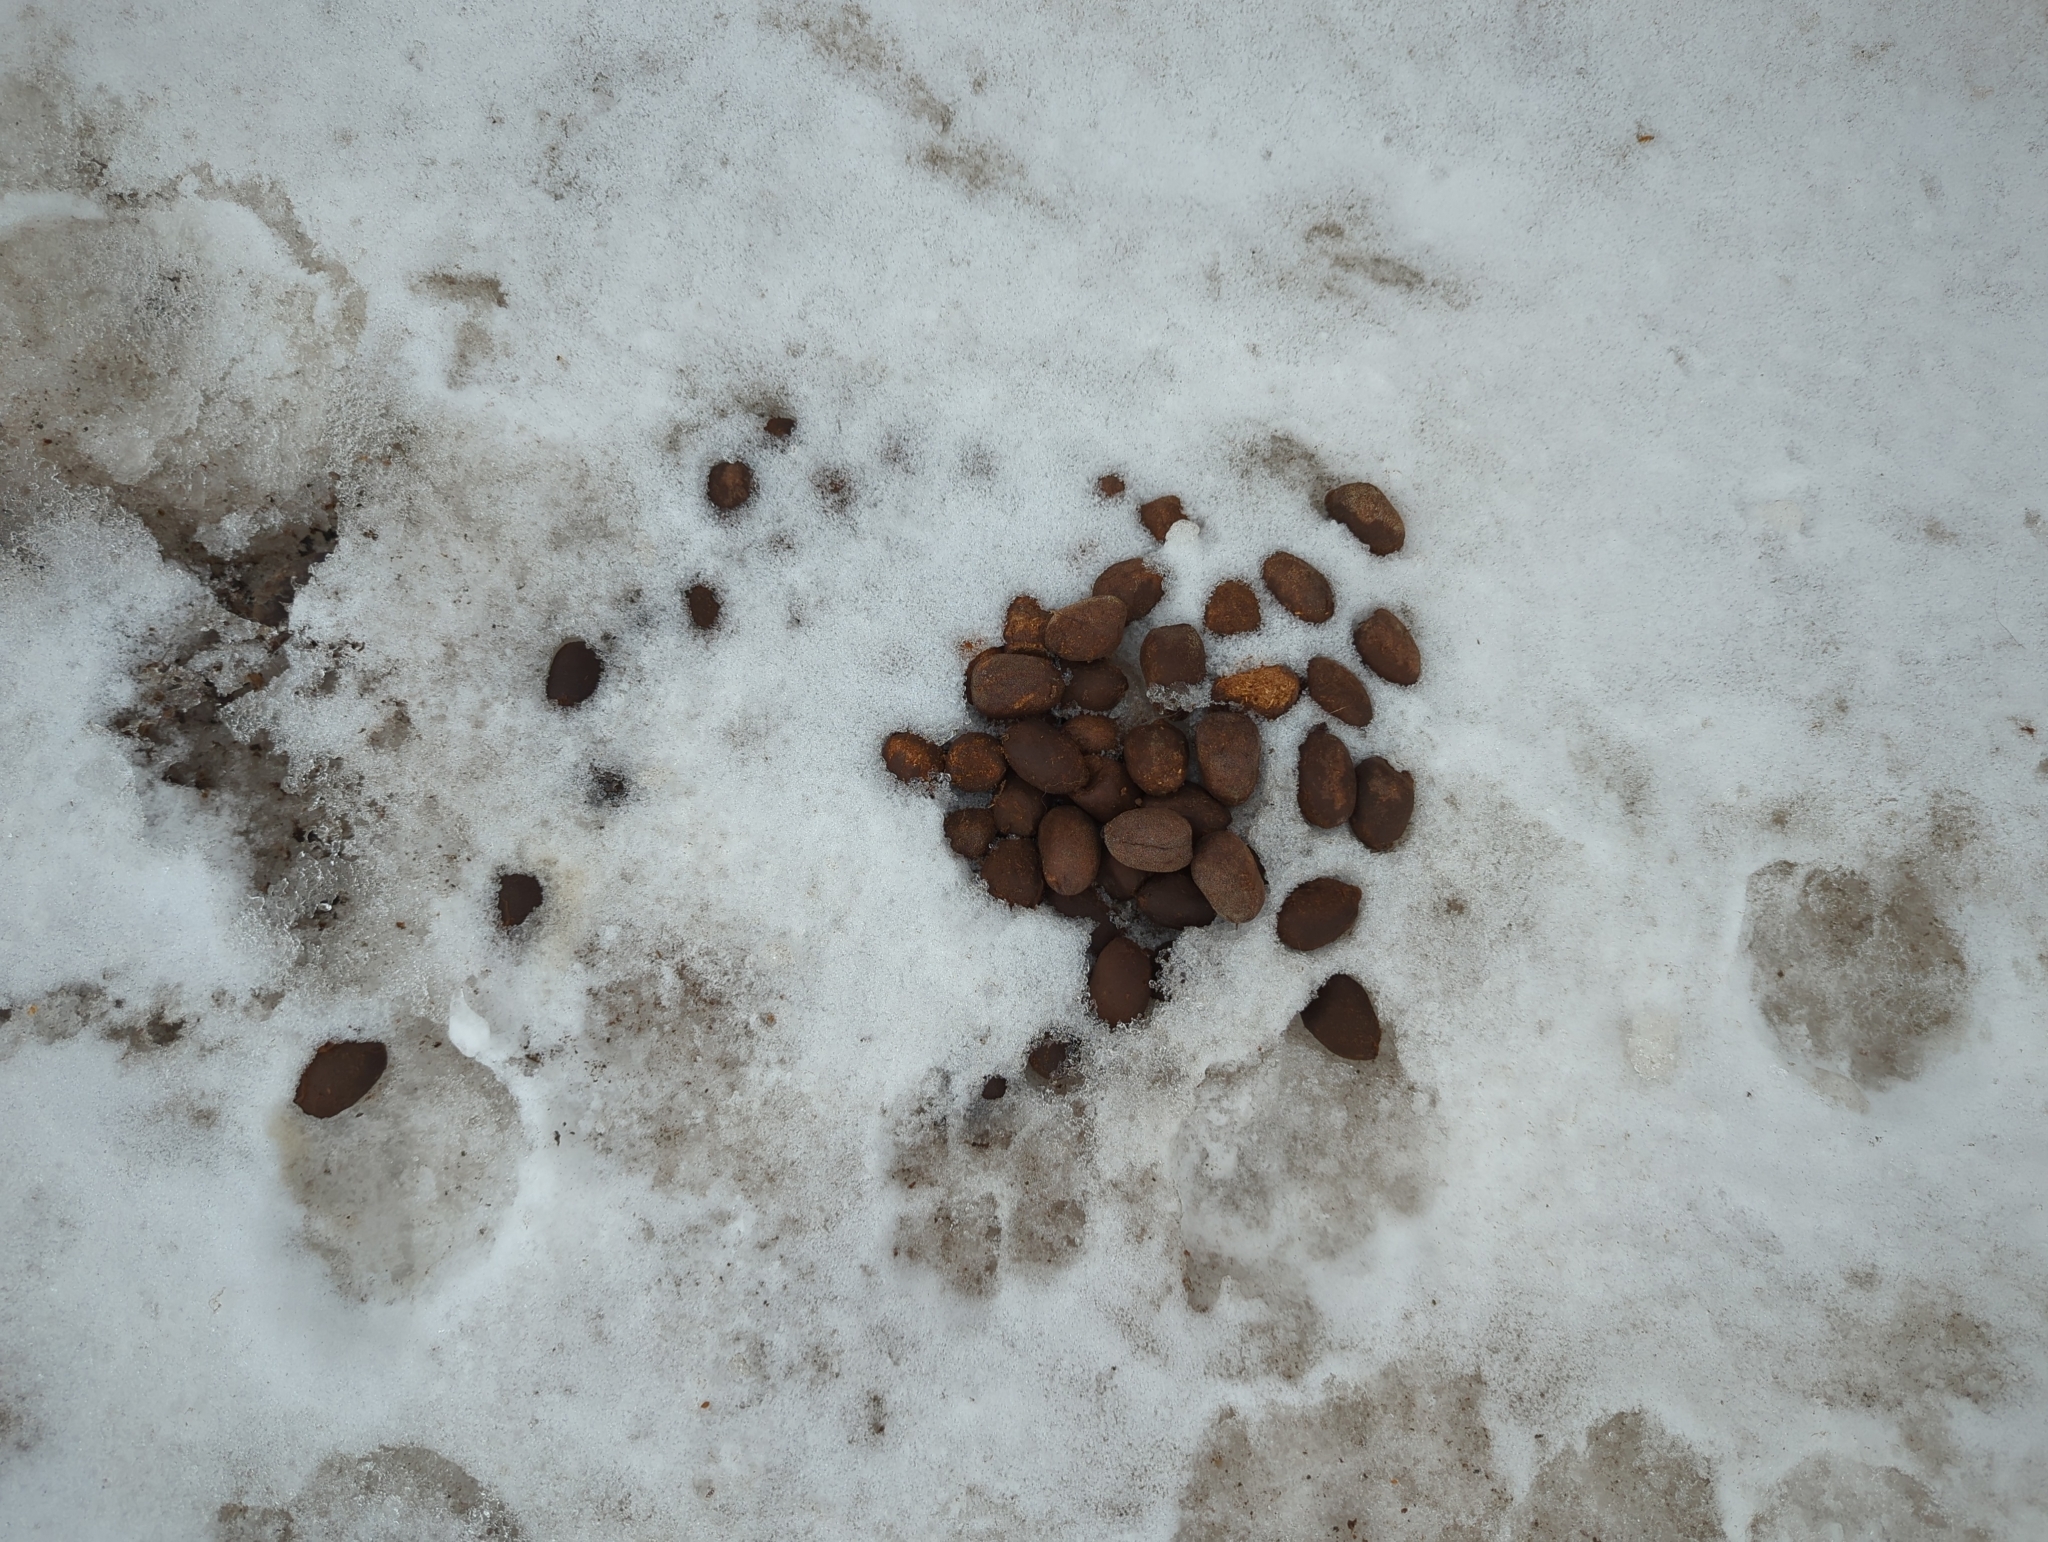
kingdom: Animalia
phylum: Chordata
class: Mammalia
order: Artiodactyla
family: Cervidae
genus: Alces
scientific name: Alces alces
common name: Moose
